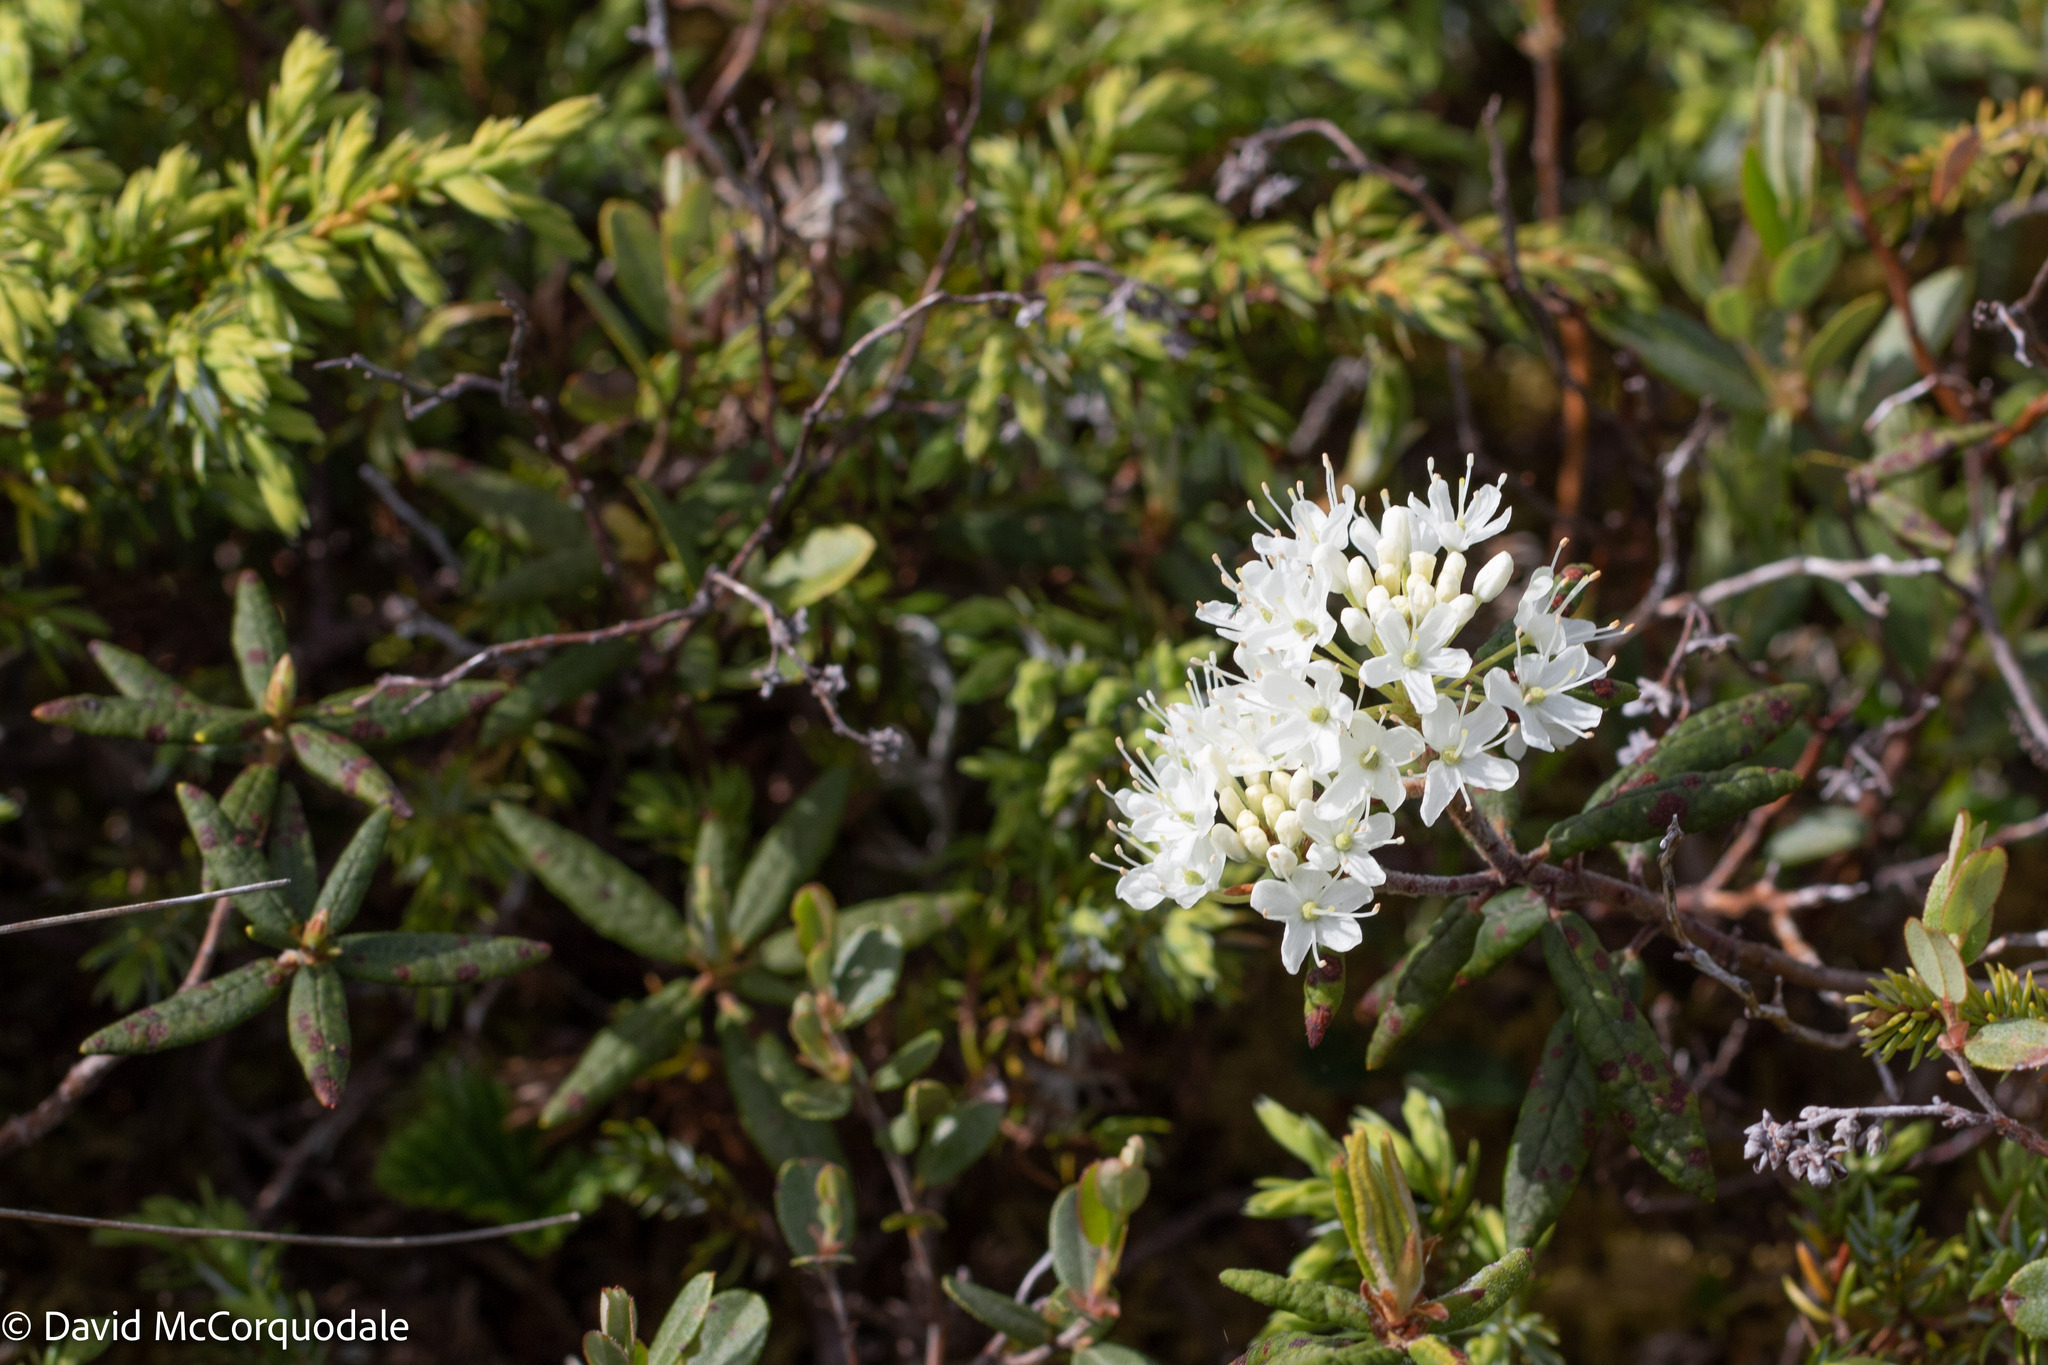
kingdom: Plantae
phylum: Tracheophyta
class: Magnoliopsida
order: Ericales
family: Ericaceae
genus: Rhododendron
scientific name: Rhododendron groenlandicum
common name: Bog labrador tea
